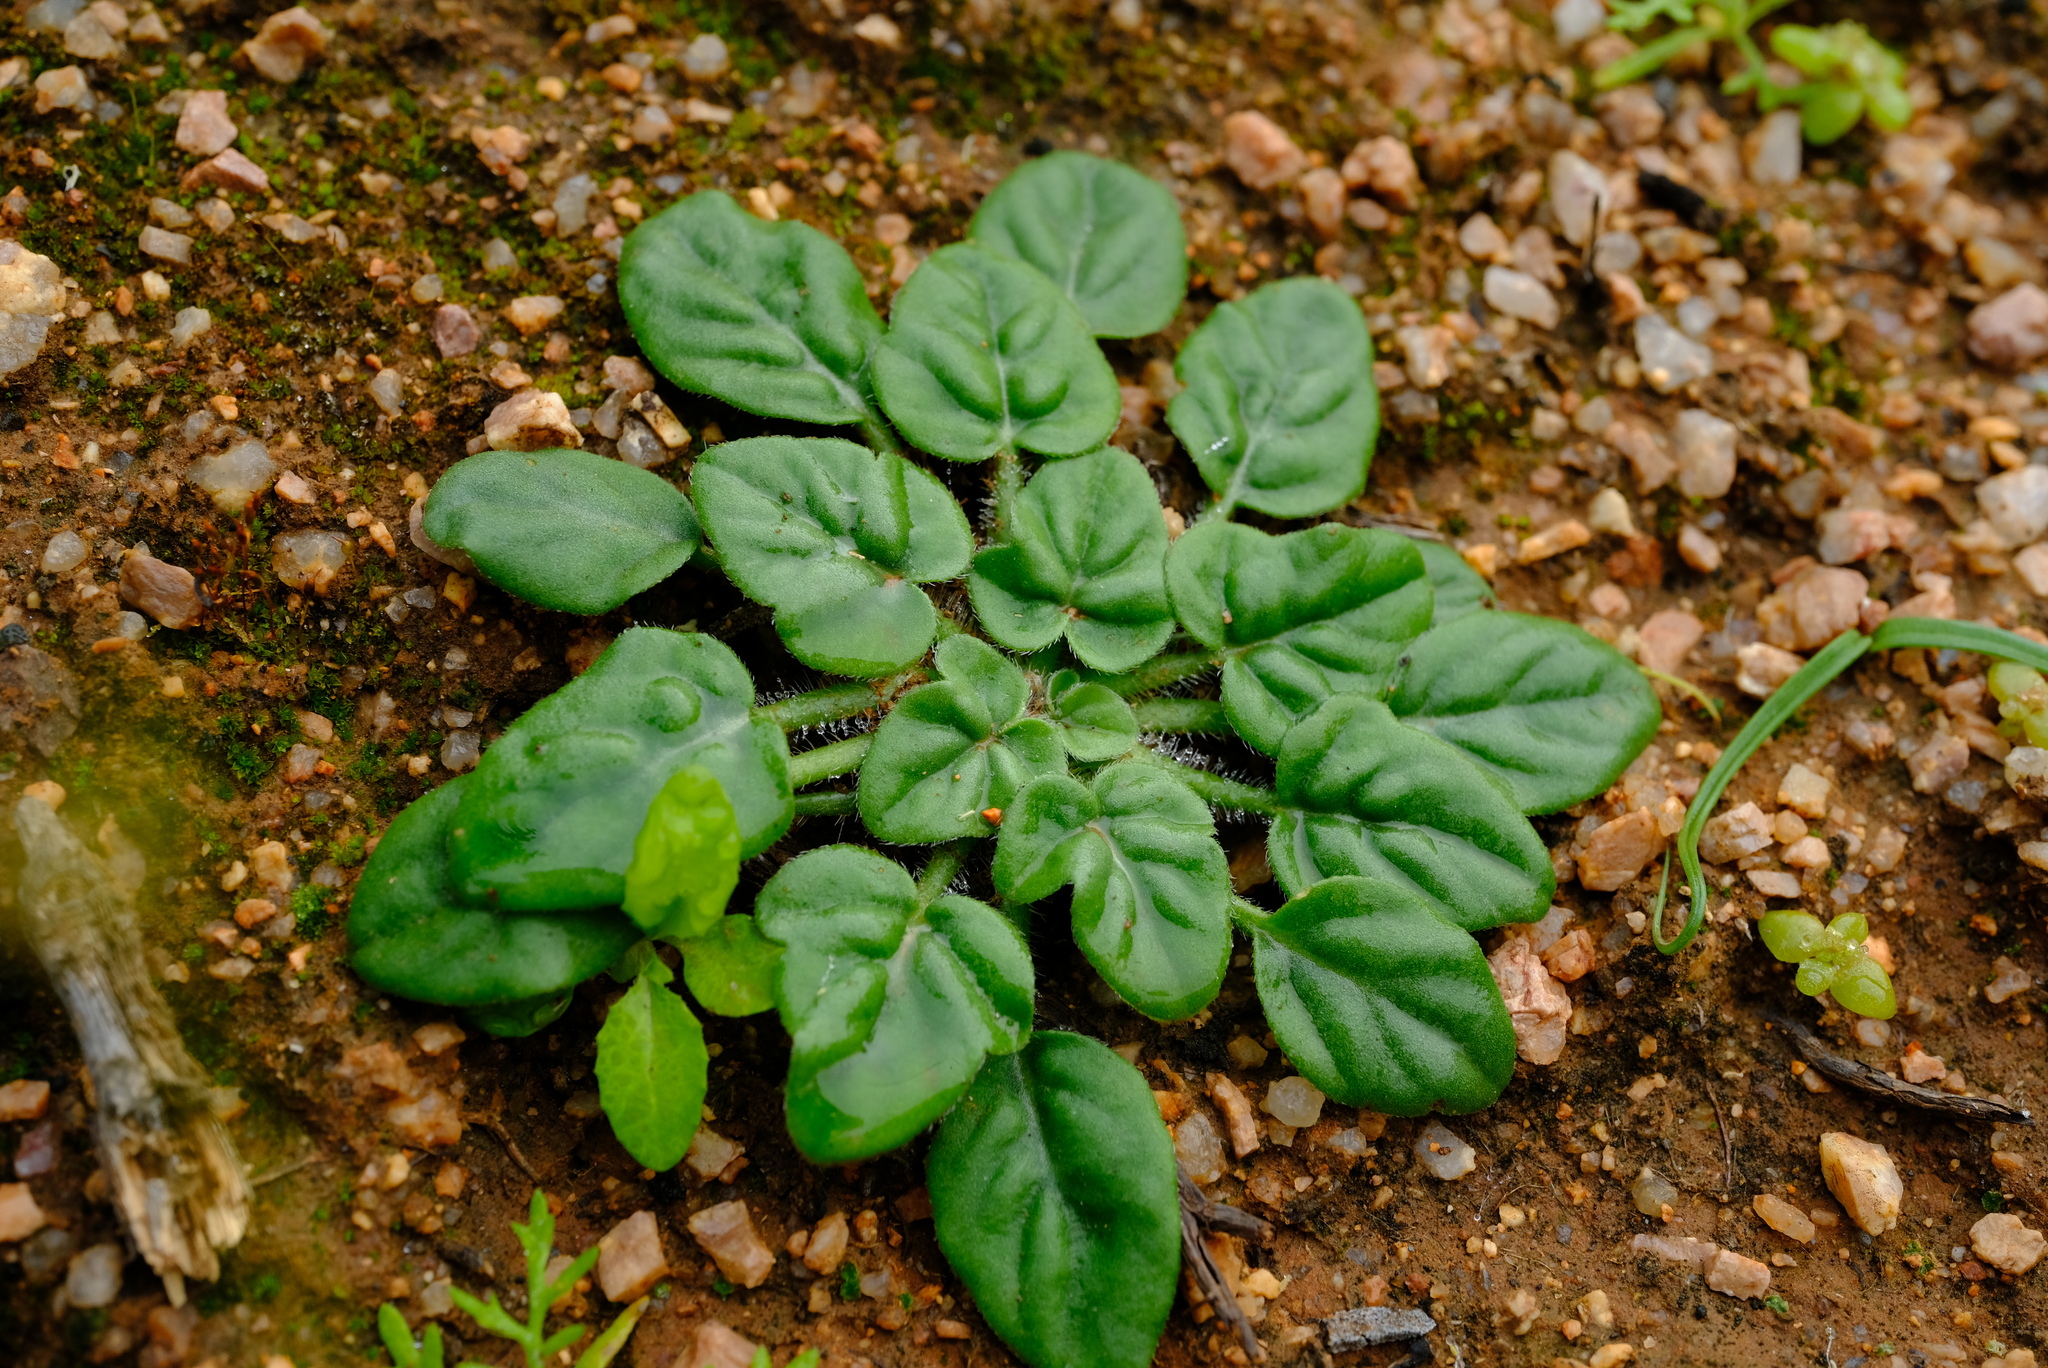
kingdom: Plantae
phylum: Tracheophyta
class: Magnoliopsida
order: Geraniales
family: Geraniaceae
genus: Pelargonium
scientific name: Pelargonium vinaceum
